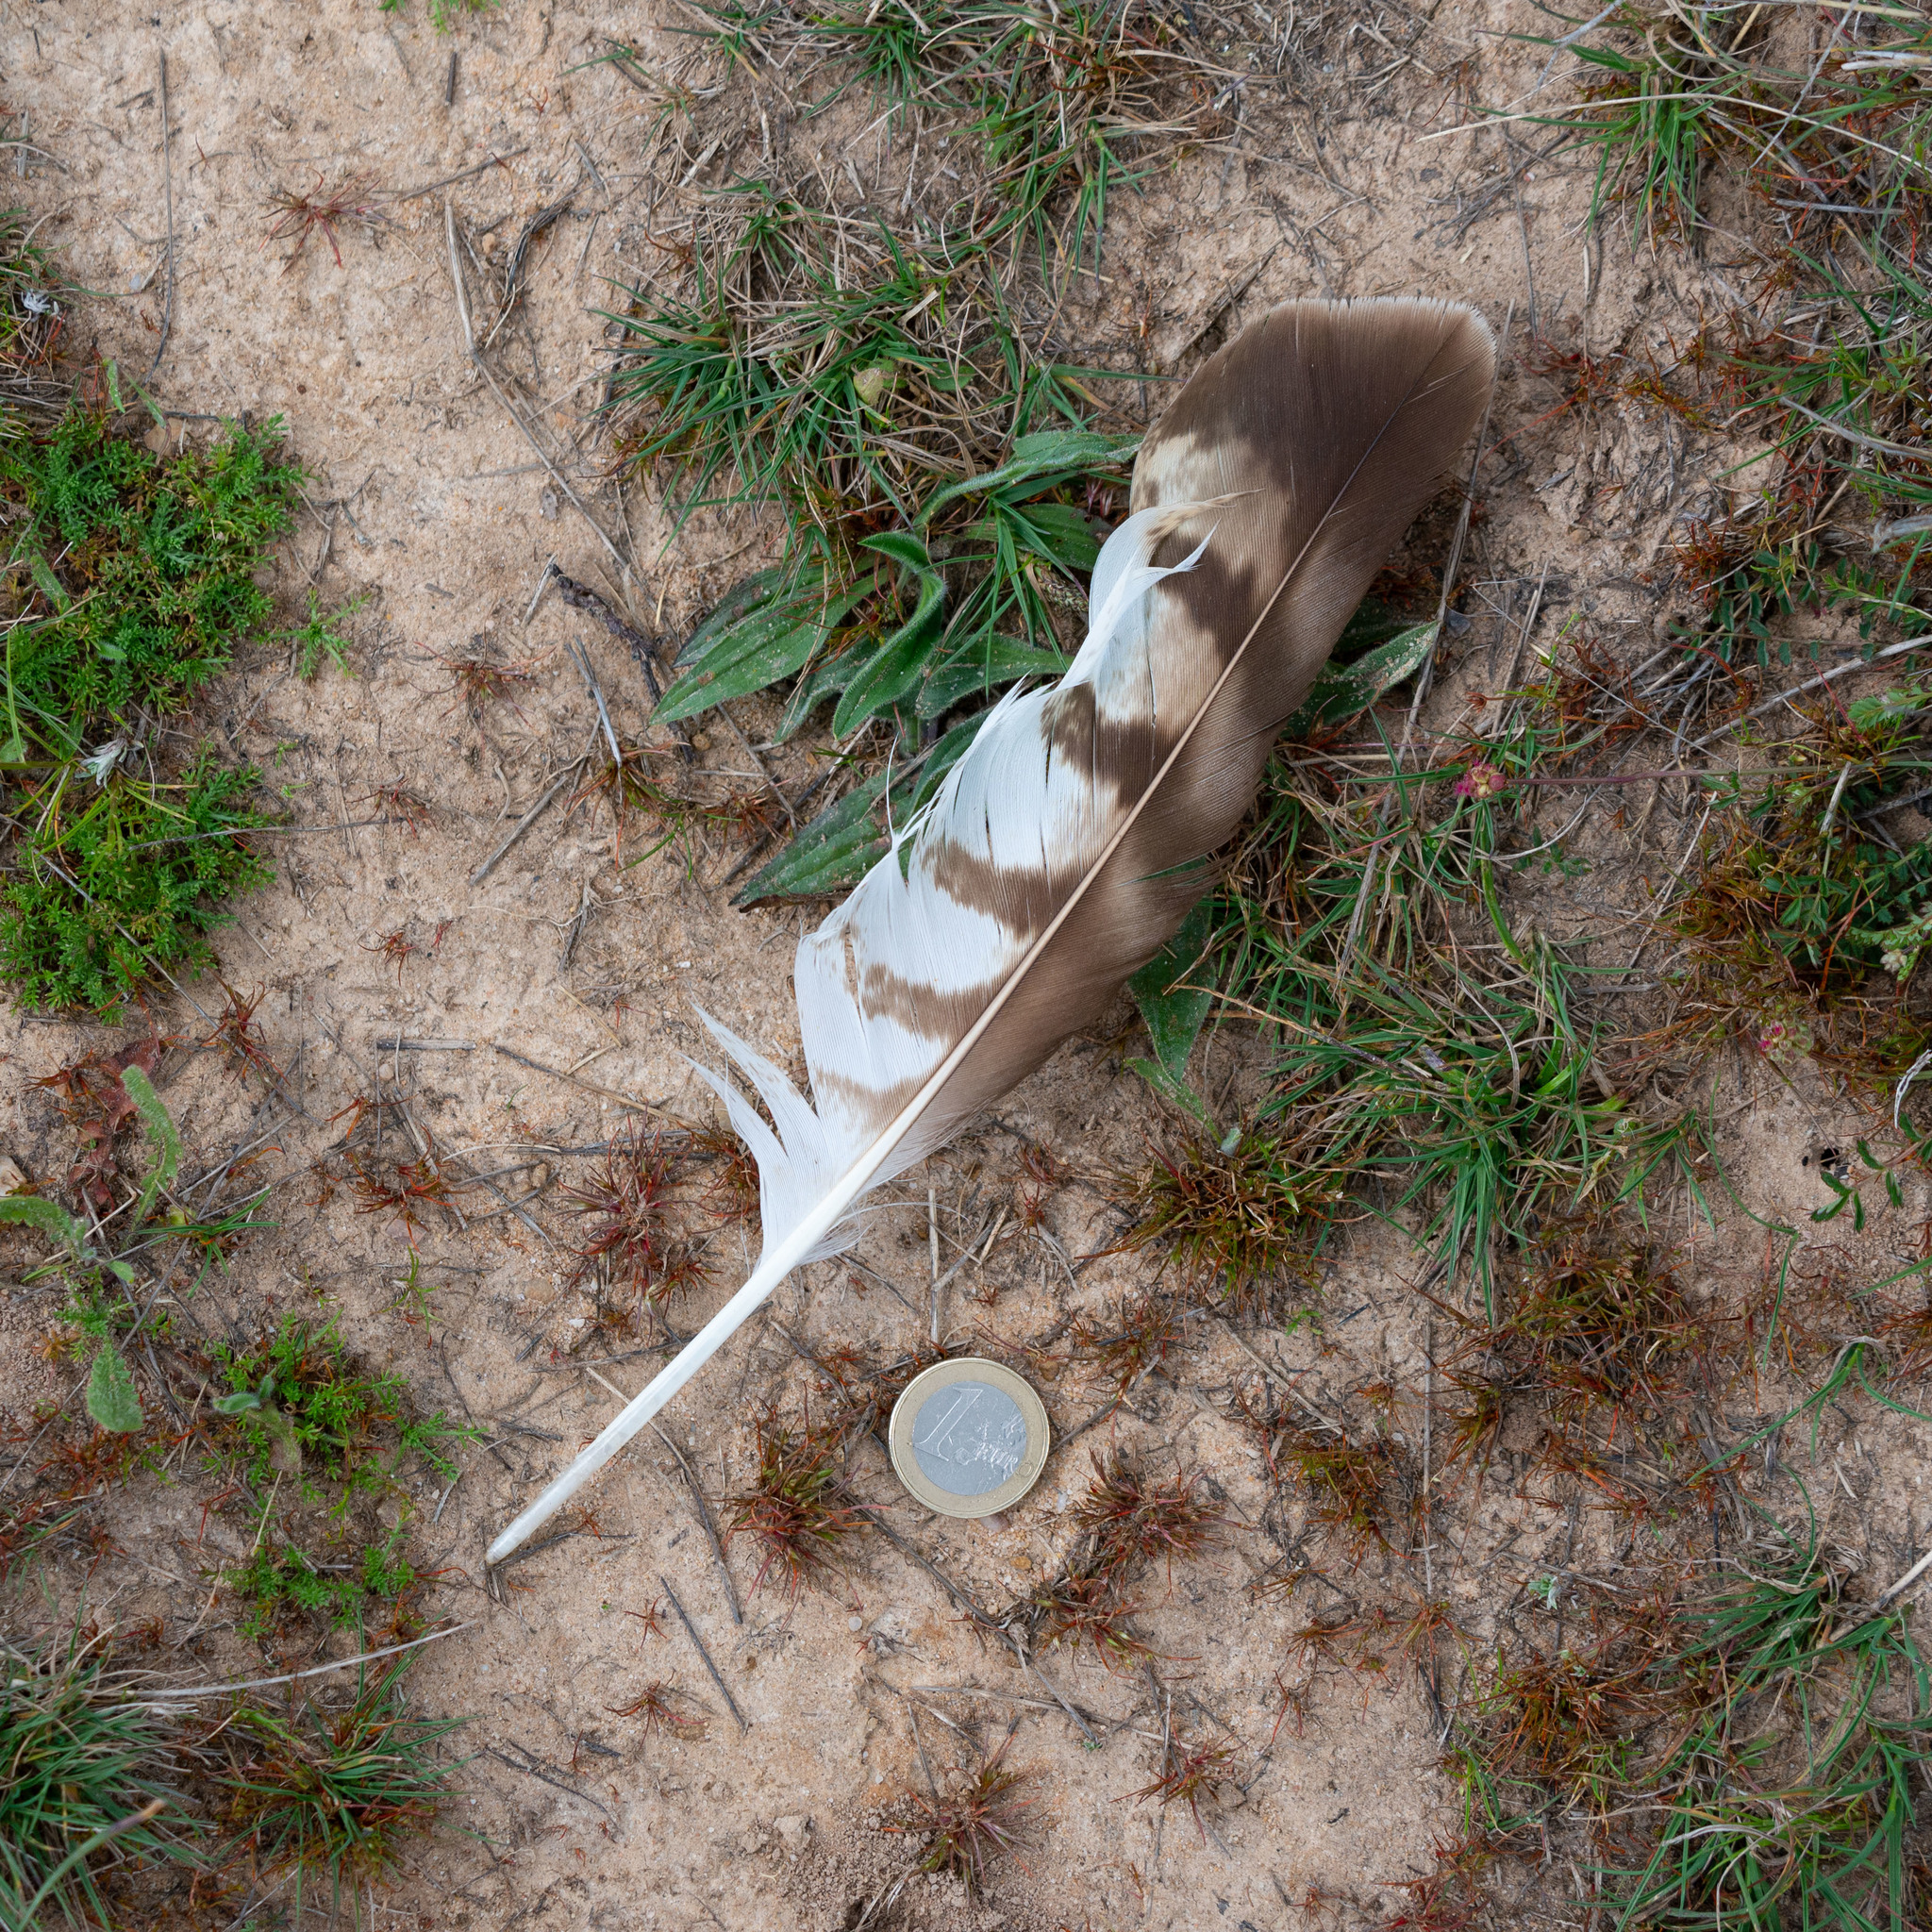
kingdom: Animalia
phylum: Chordata
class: Aves
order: Accipitriformes
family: Accipitridae
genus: Buteo
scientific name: Buteo buteo
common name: Common buzzard
